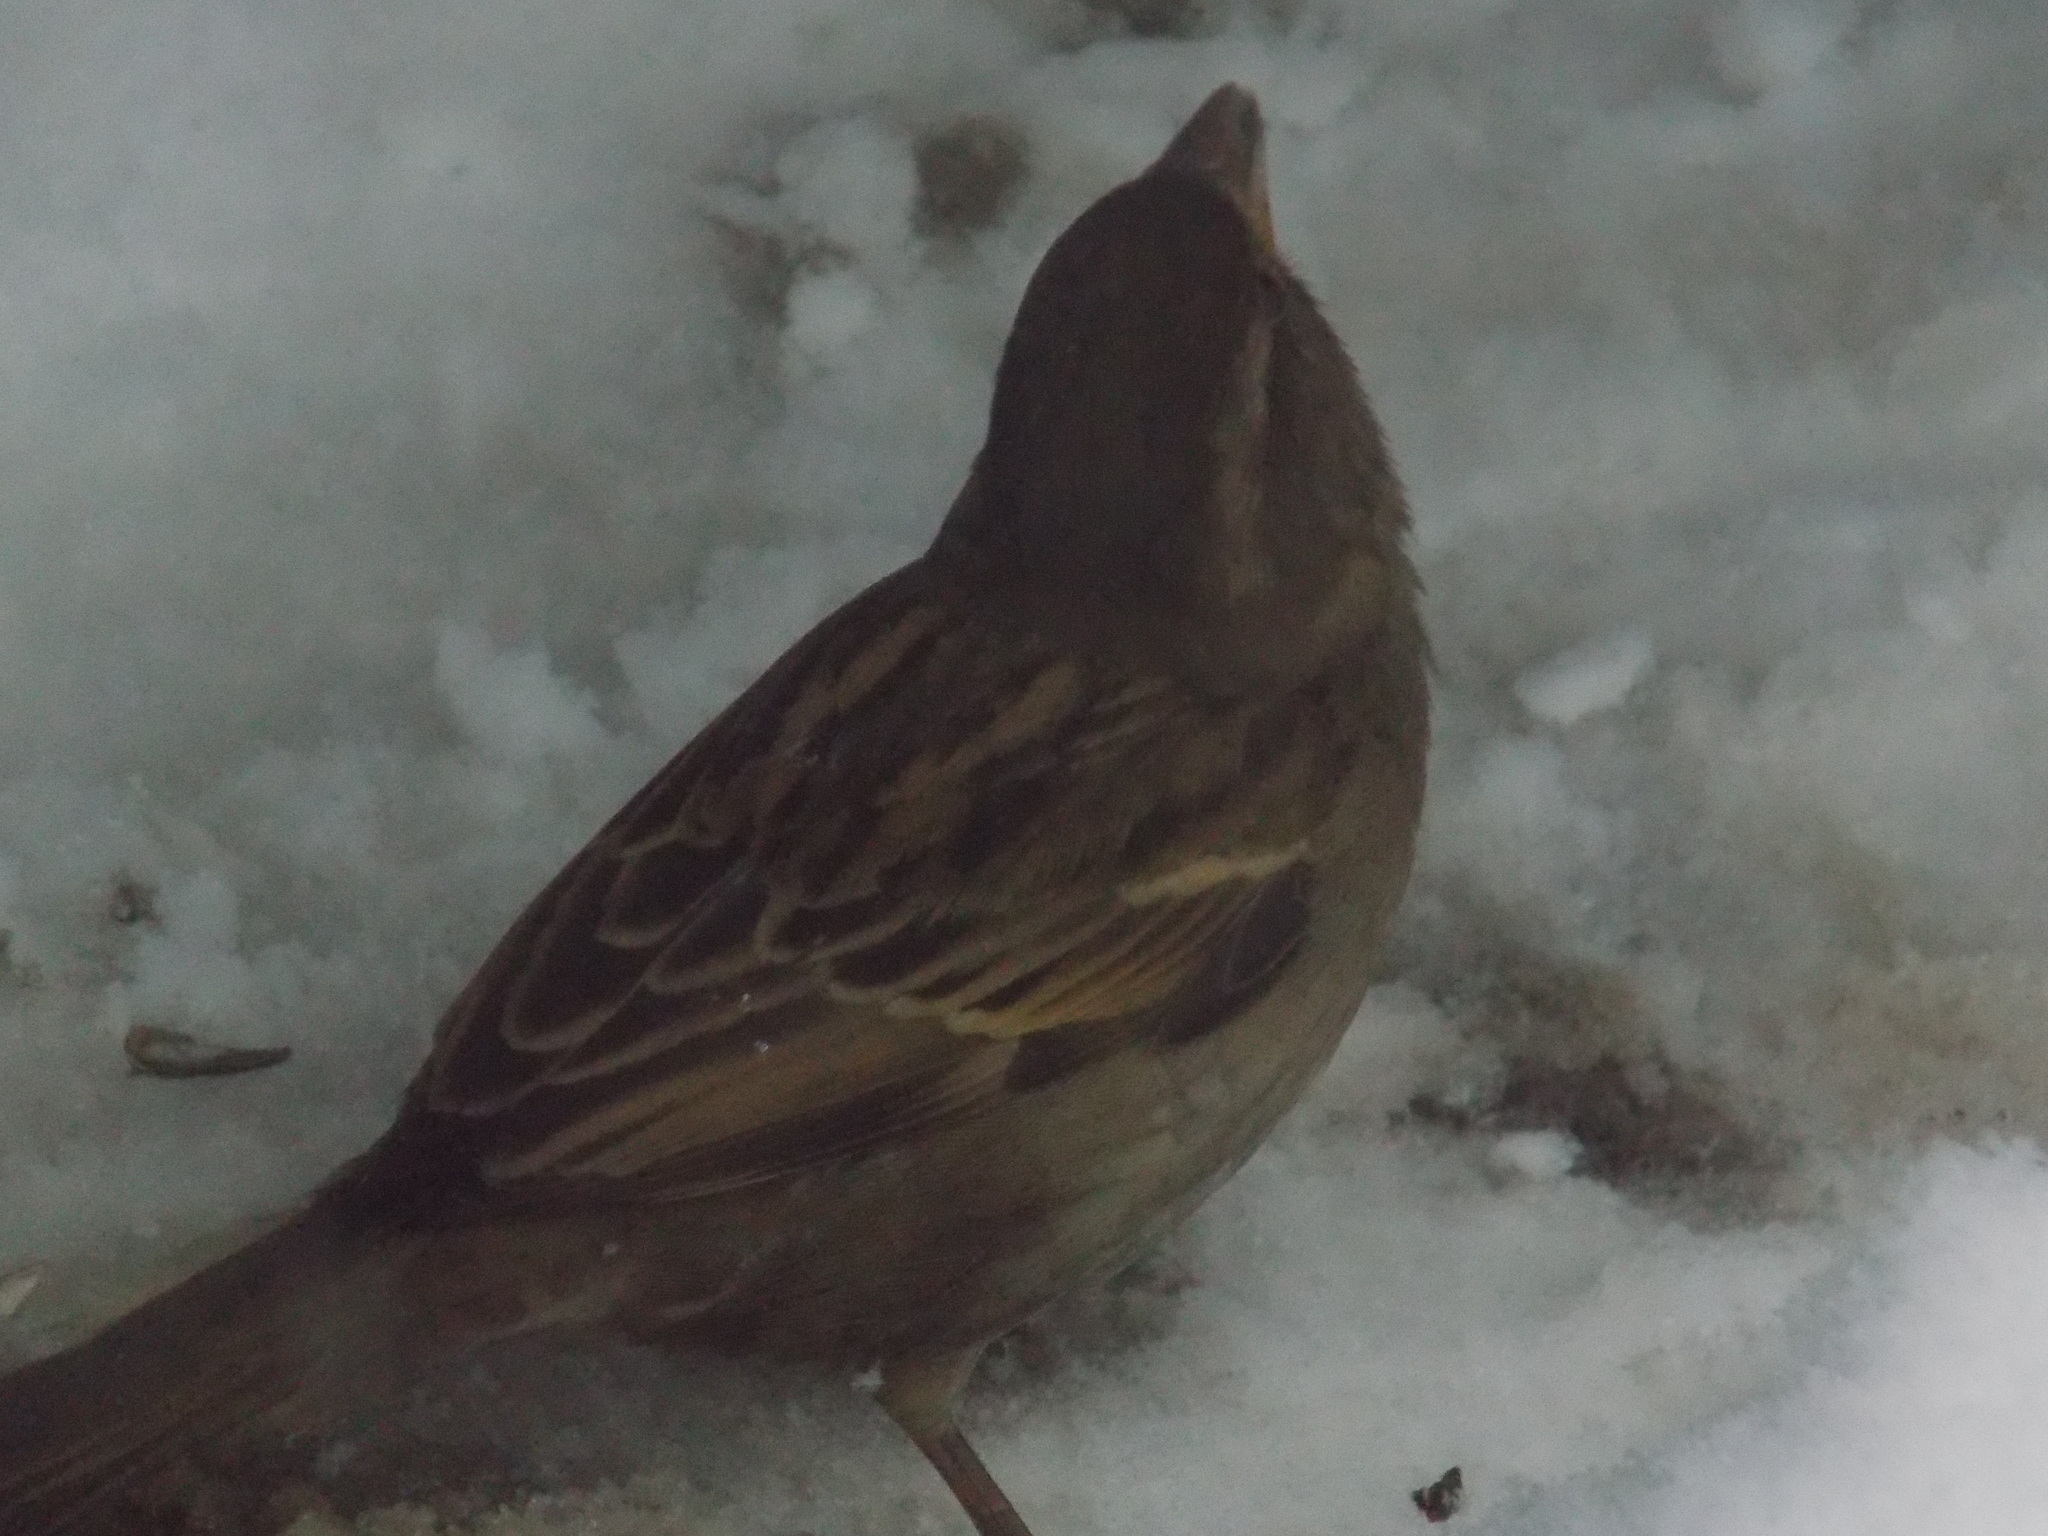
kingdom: Animalia
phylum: Chordata
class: Aves
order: Passeriformes
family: Passeridae
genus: Passer
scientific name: Passer domesticus
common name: House sparrow
